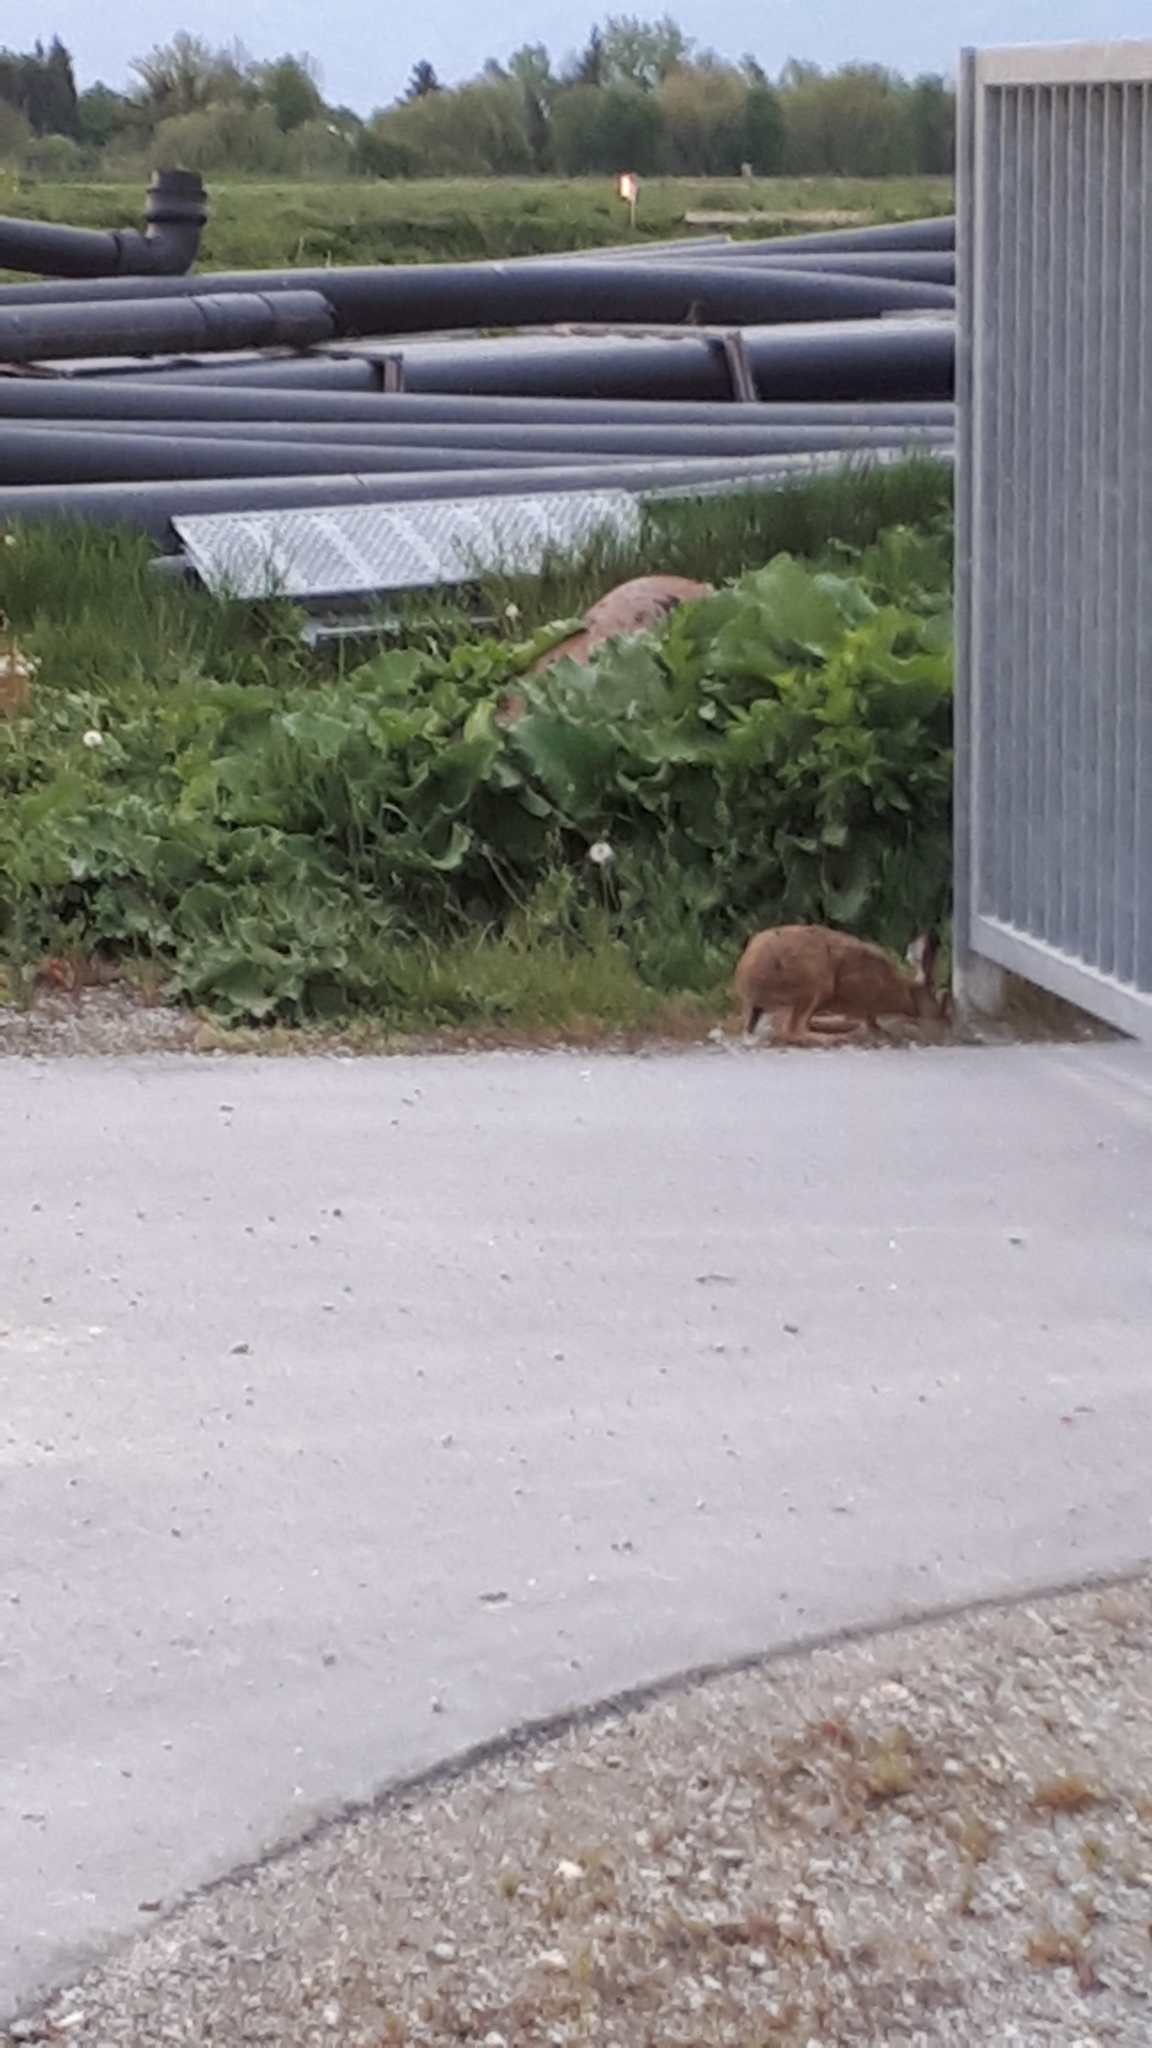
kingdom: Animalia
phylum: Chordata
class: Mammalia
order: Lagomorpha
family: Leporidae
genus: Lepus
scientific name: Lepus europaeus
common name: European hare
